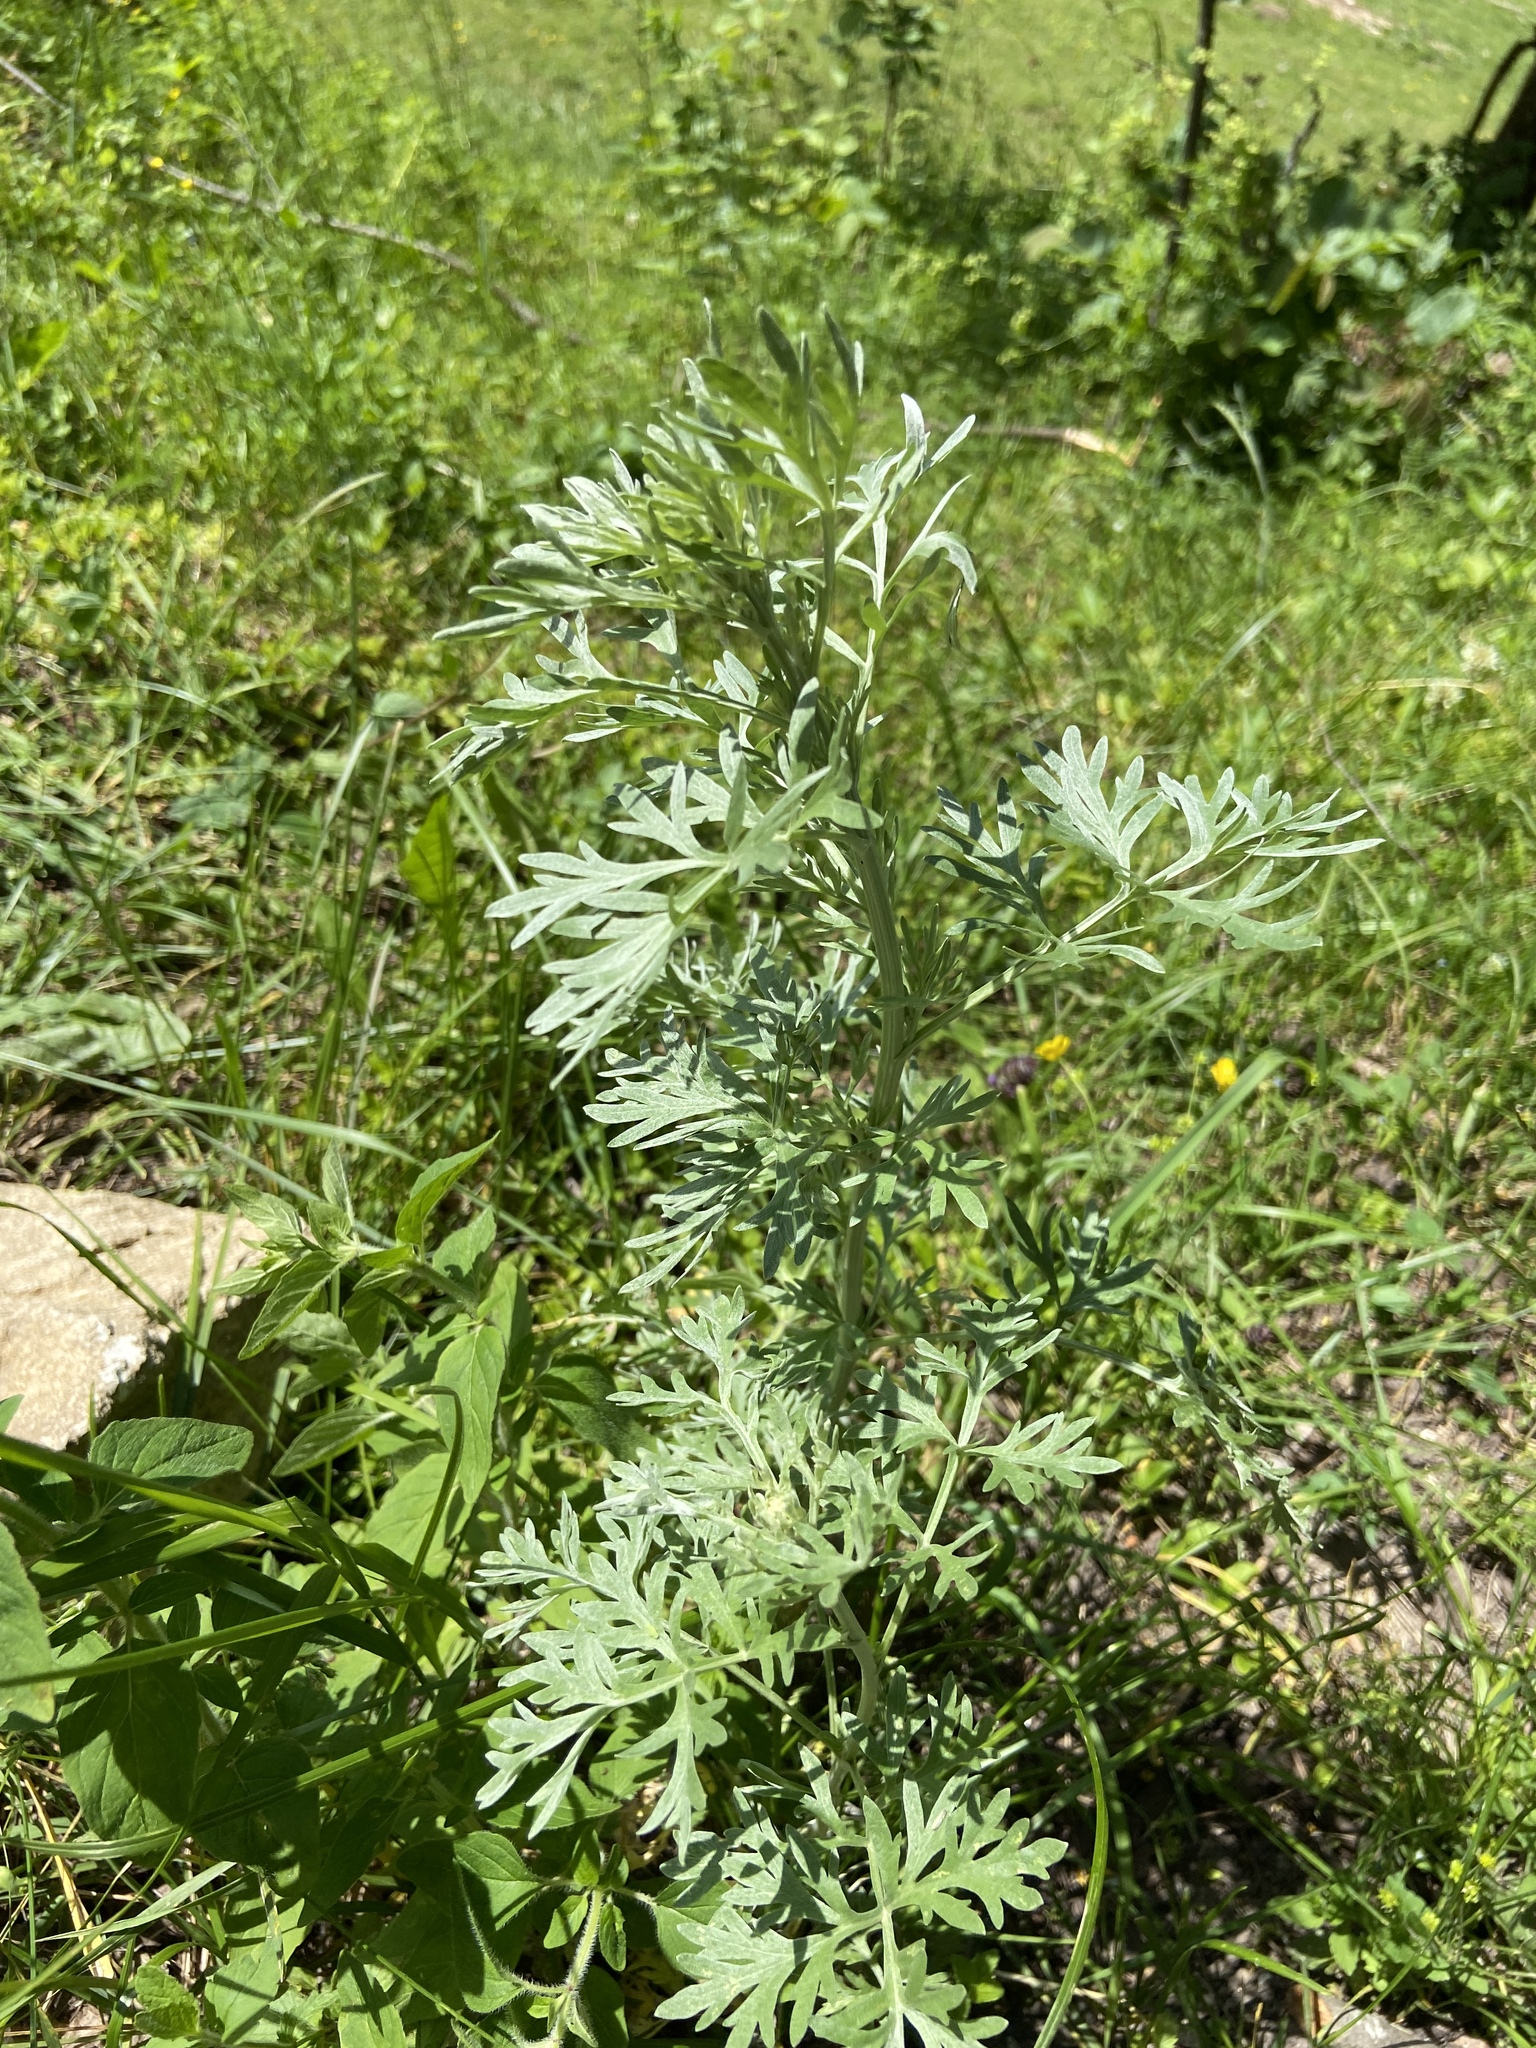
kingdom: Plantae
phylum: Tracheophyta
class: Magnoliopsida
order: Asterales
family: Asteraceae
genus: Artemisia
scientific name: Artemisia absinthium
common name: Wormwood
